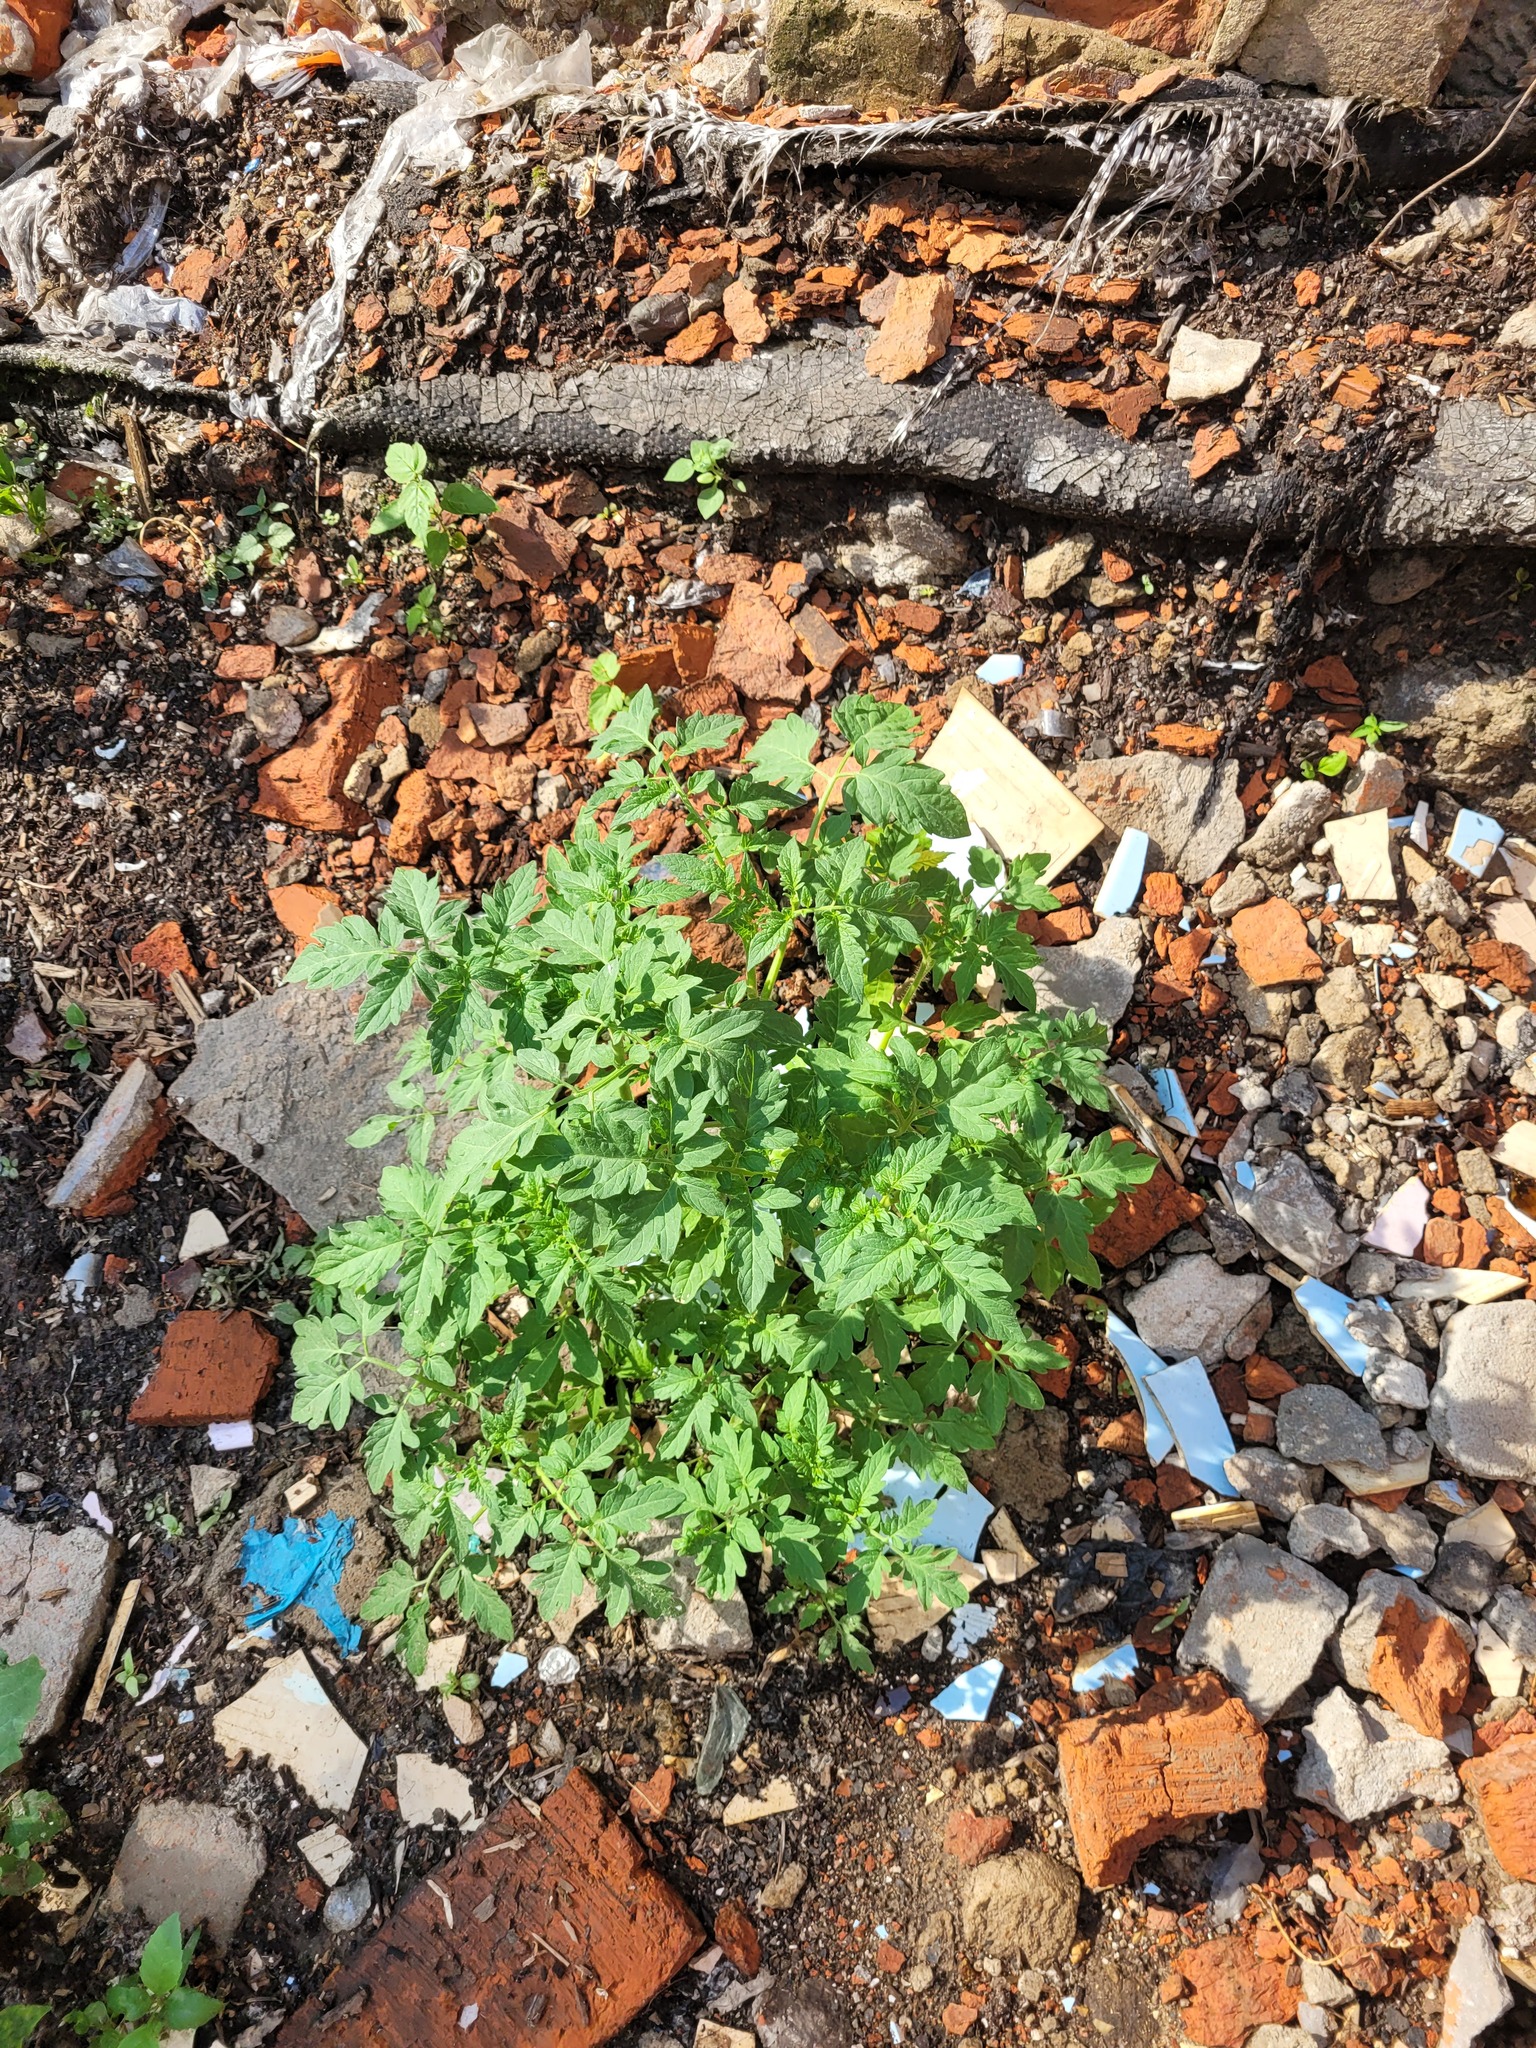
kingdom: Plantae
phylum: Tracheophyta
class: Magnoliopsida
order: Solanales
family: Solanaceae
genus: Solanum
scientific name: Solanum lycopersicum
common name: Garden tomato
